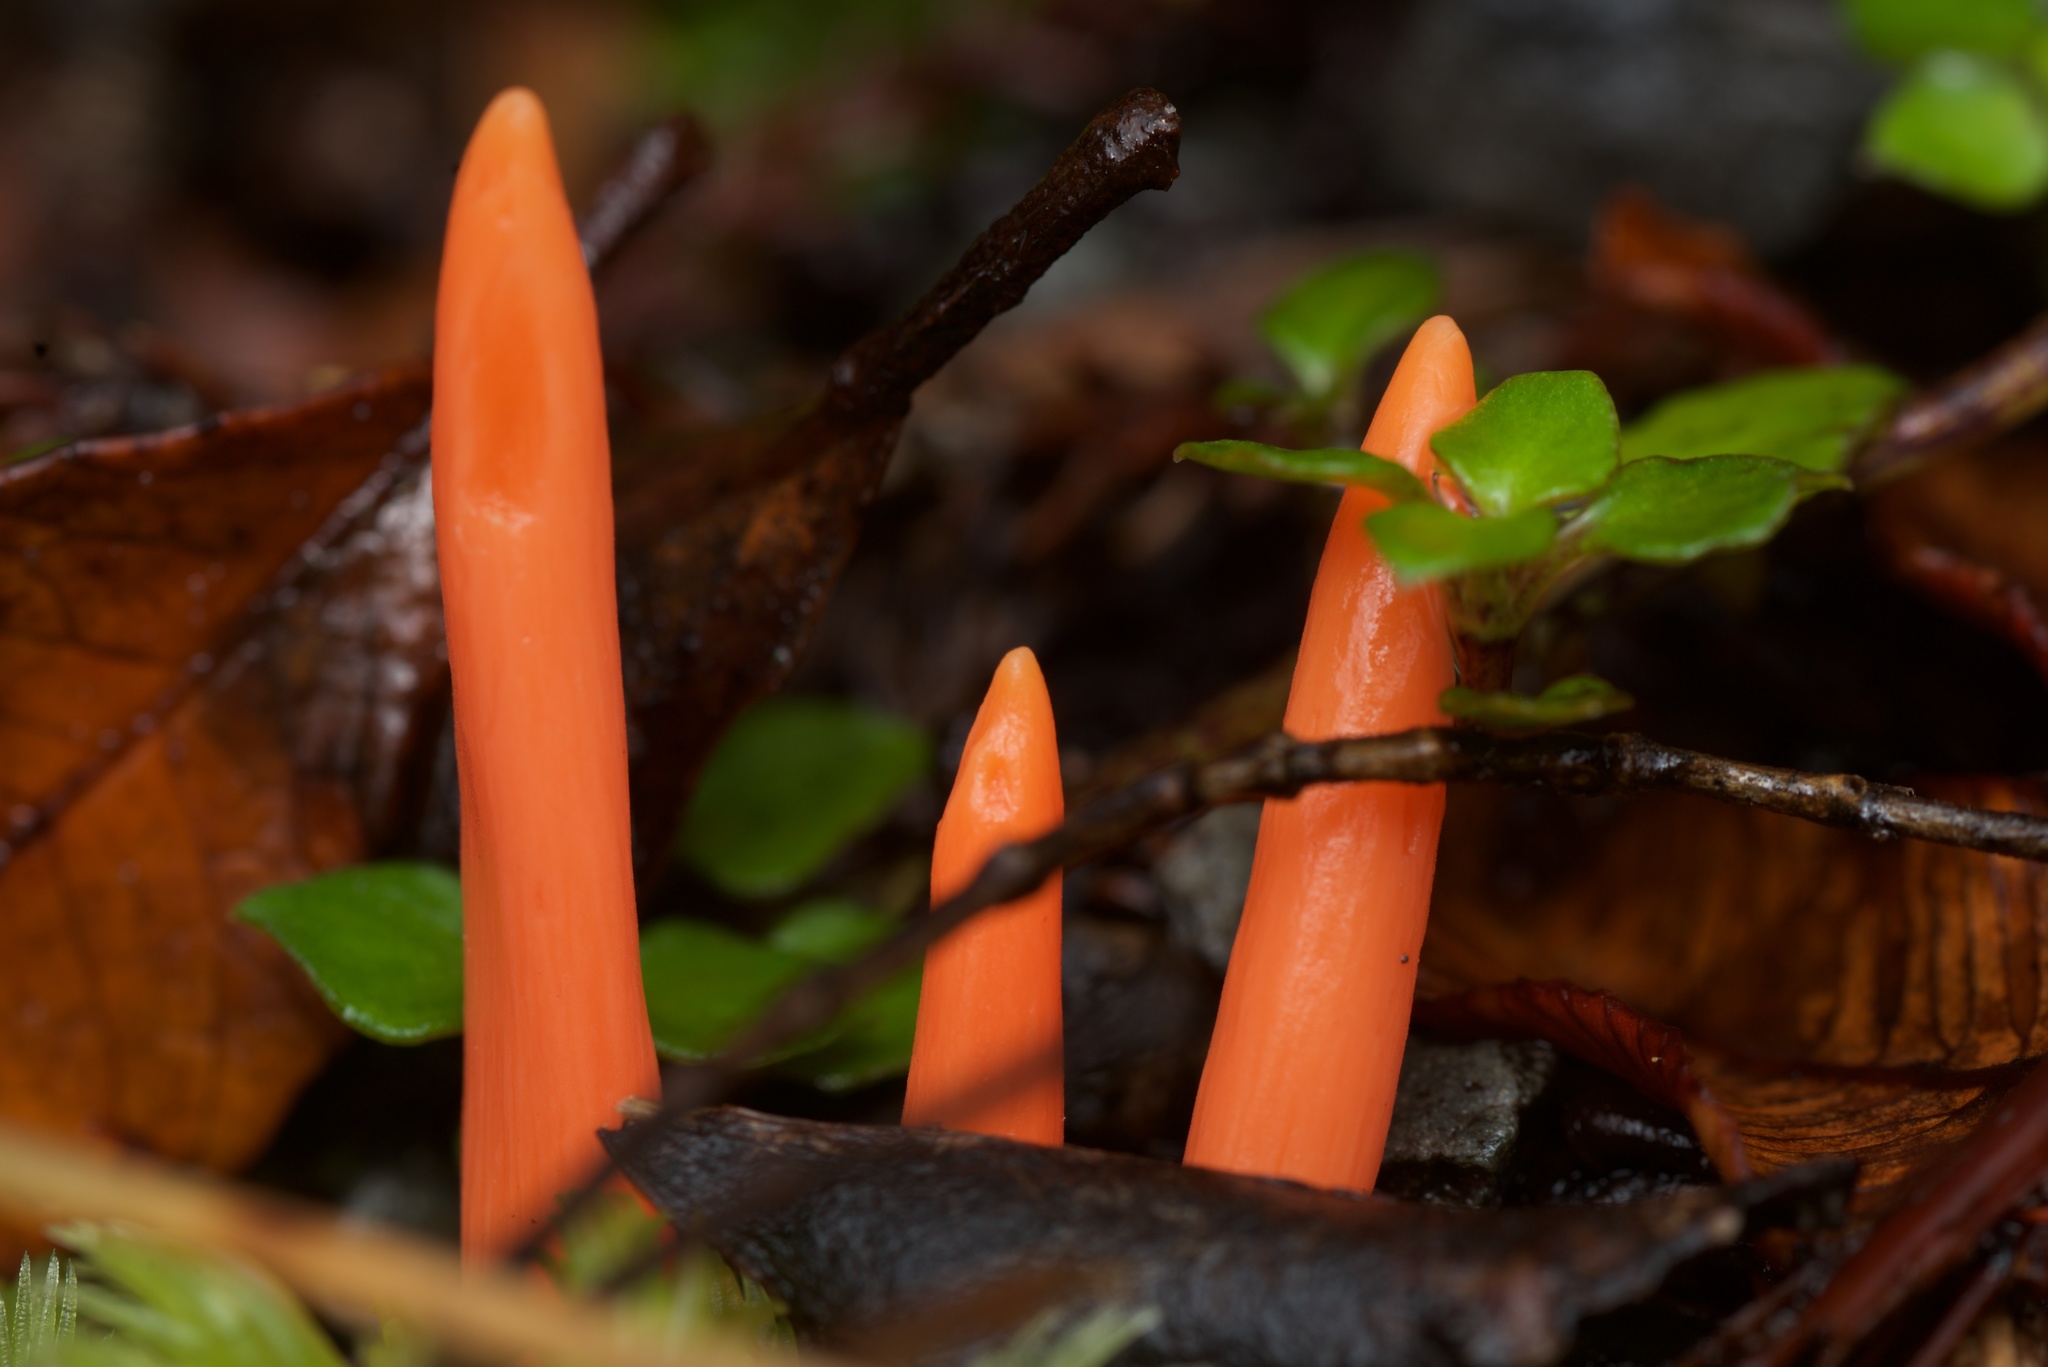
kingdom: Fungi
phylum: Basidiomycota
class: Agaricomycetes
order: Agaricales
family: Clavariaceae
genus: Clavulinopsis
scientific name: Clavulinopsis corallinorosacea
